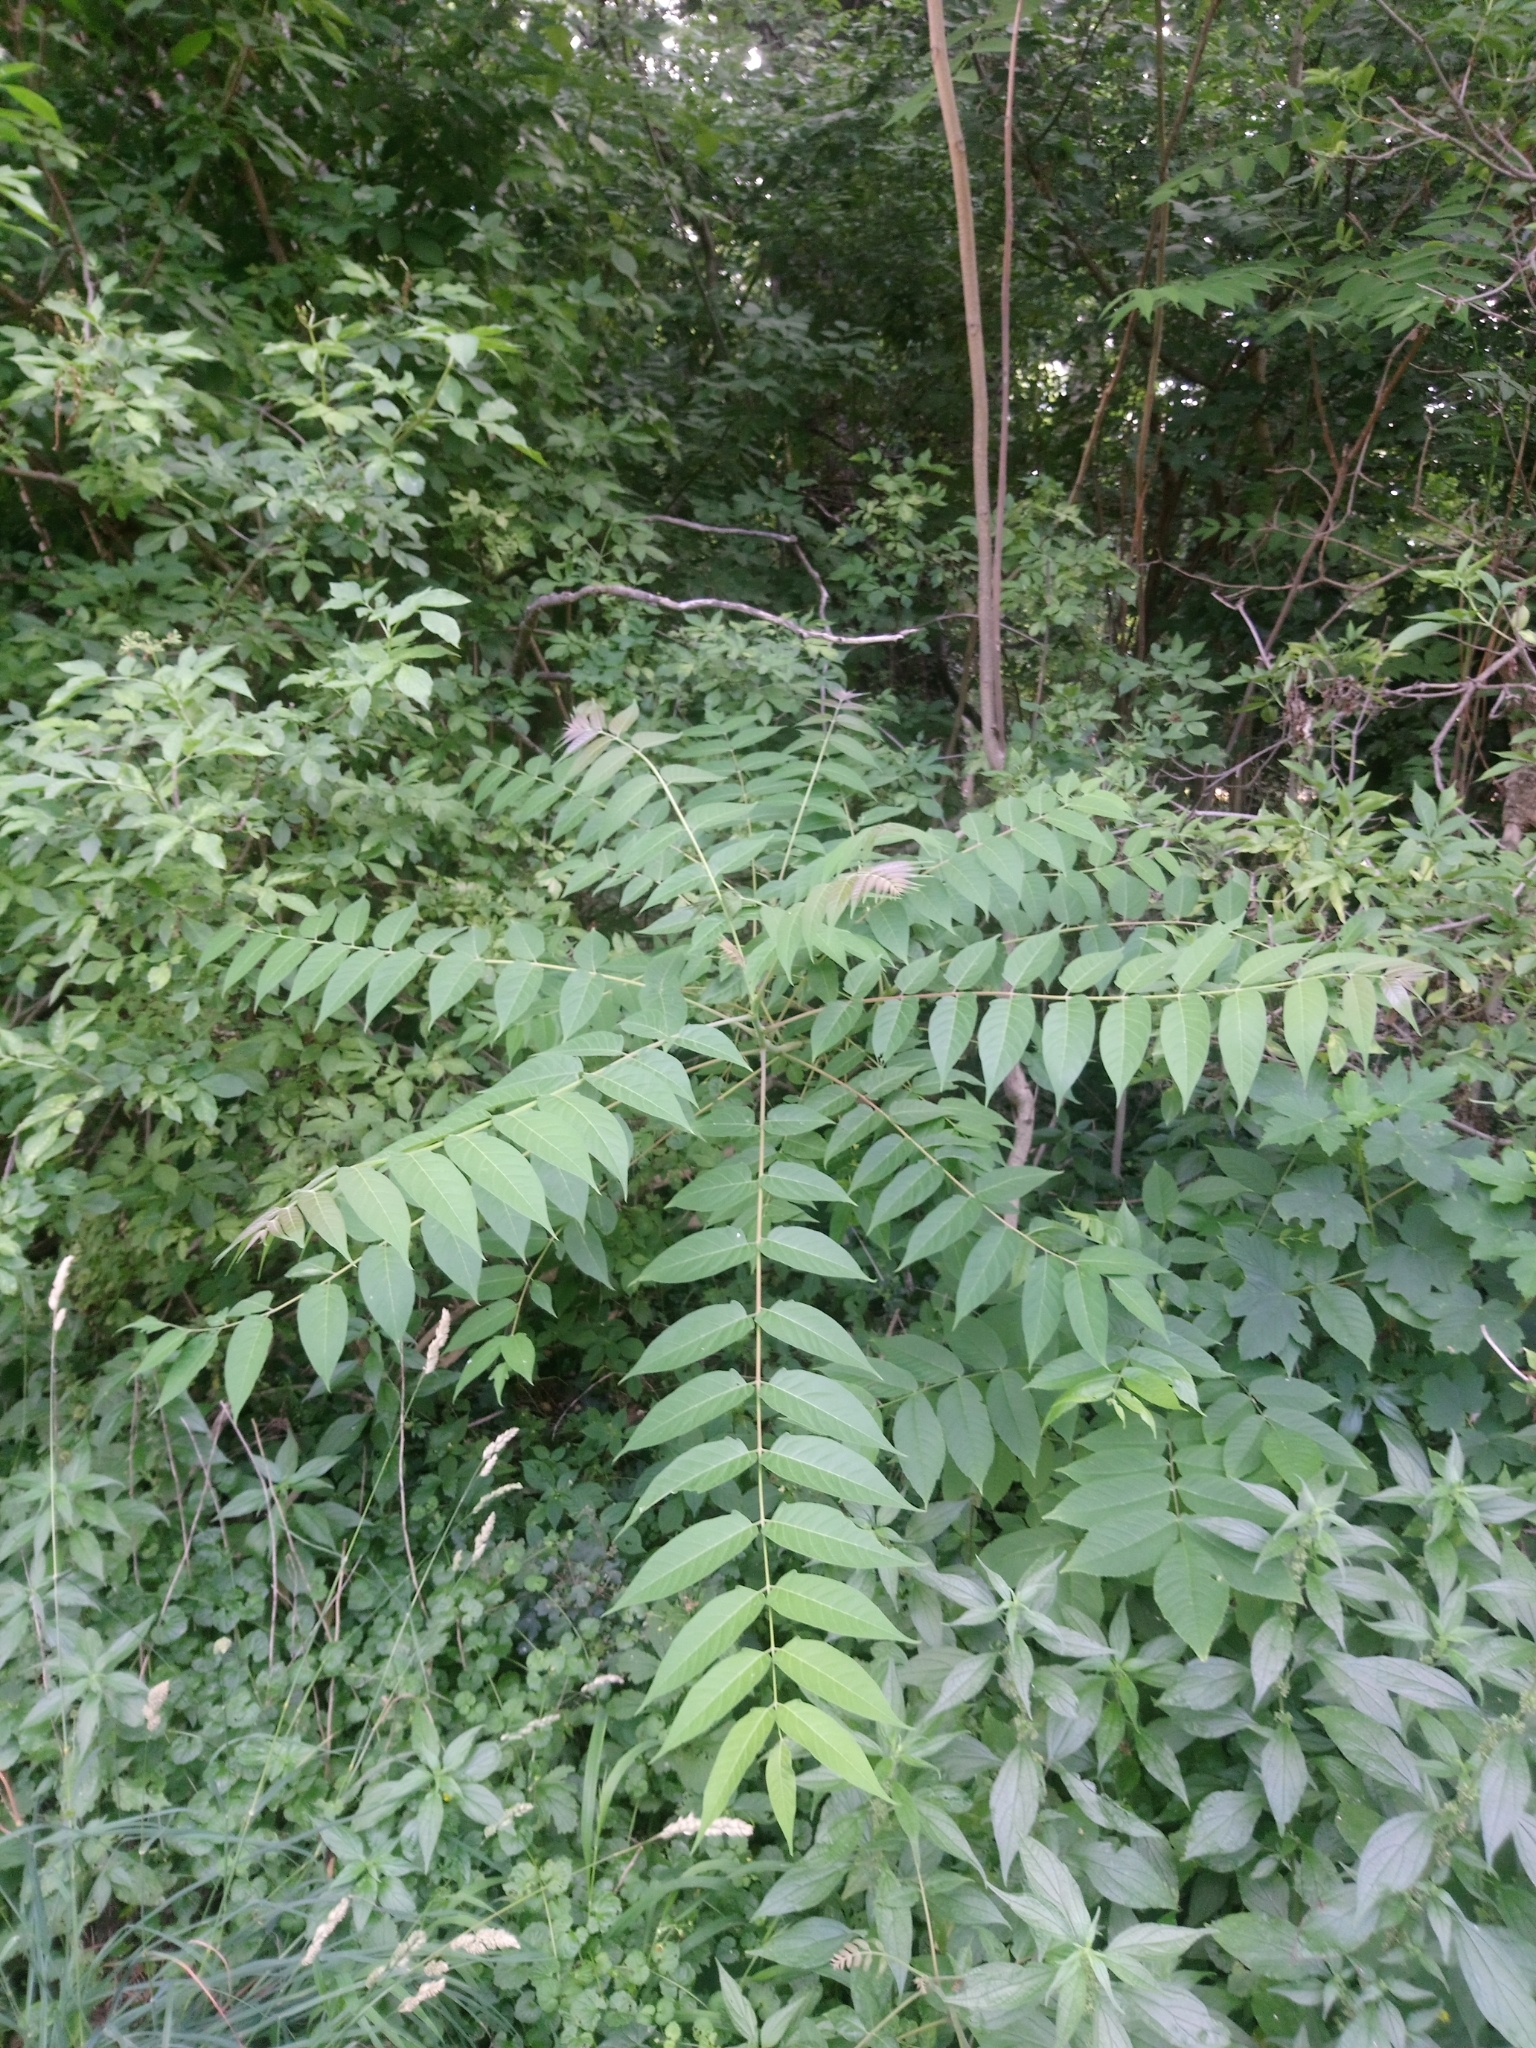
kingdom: Plantae
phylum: Tracheophyta
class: Magnoliopsida
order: Sapindales
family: Simaroubaceae
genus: Ailanthus
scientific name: Ailanthus altissima
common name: Tree-of-heaven
